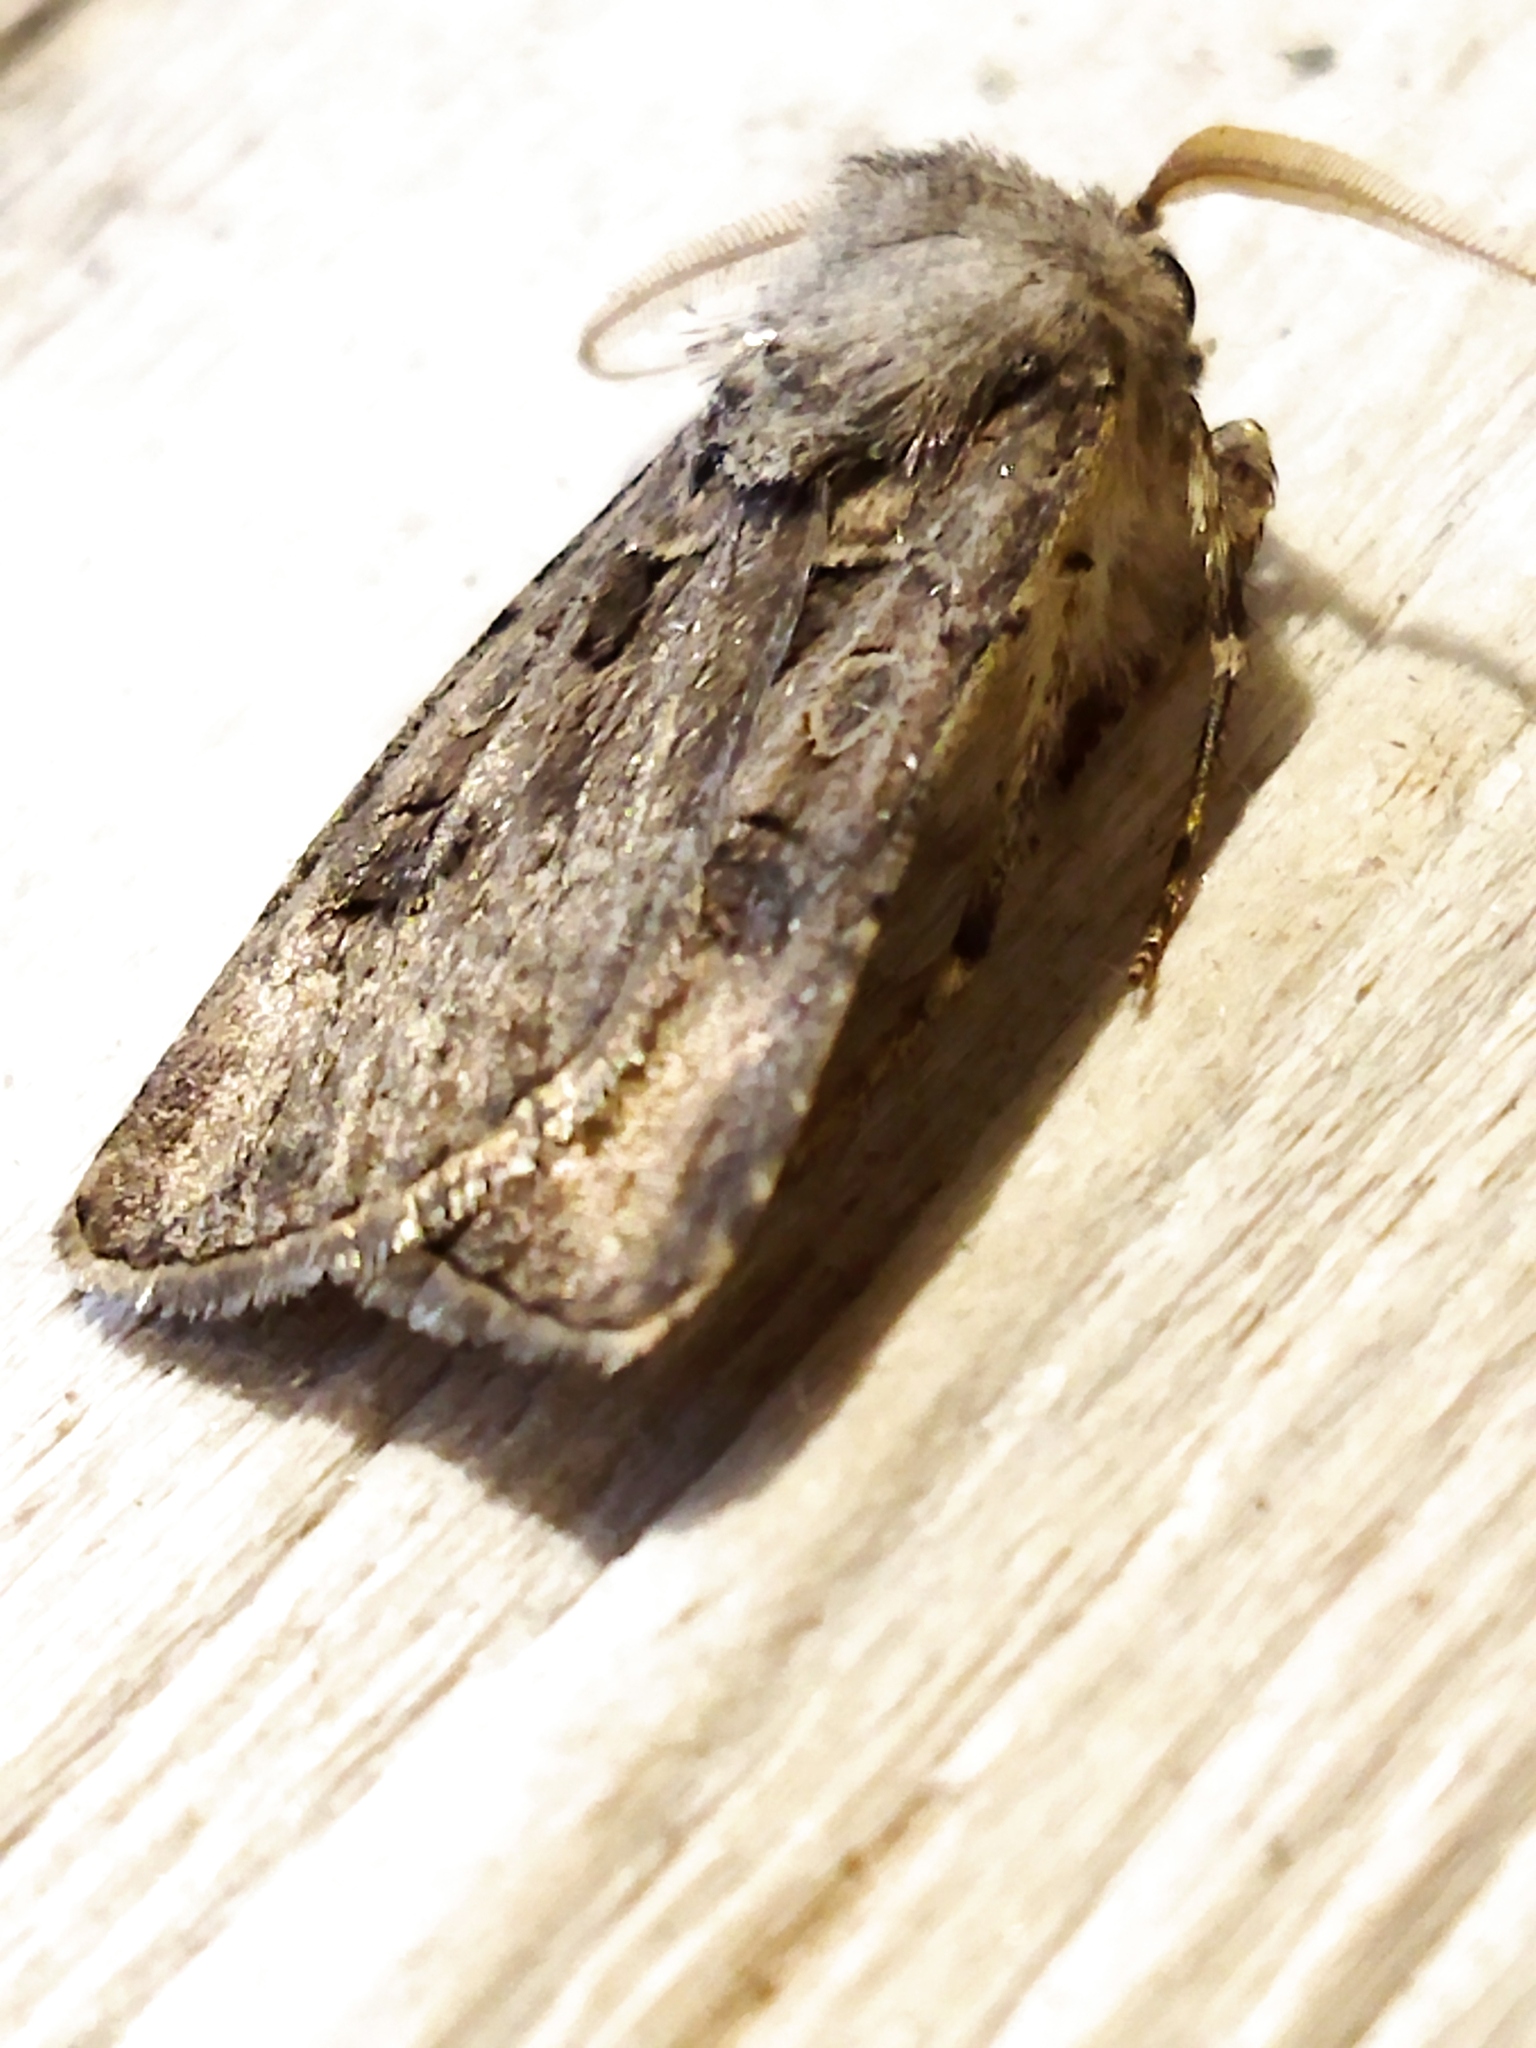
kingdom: Animalia
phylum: Arthropoda
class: Insecta
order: Lepidoptera
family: Noctuidae
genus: Agrotis
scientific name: Agrotis bigramma
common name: Great dart
